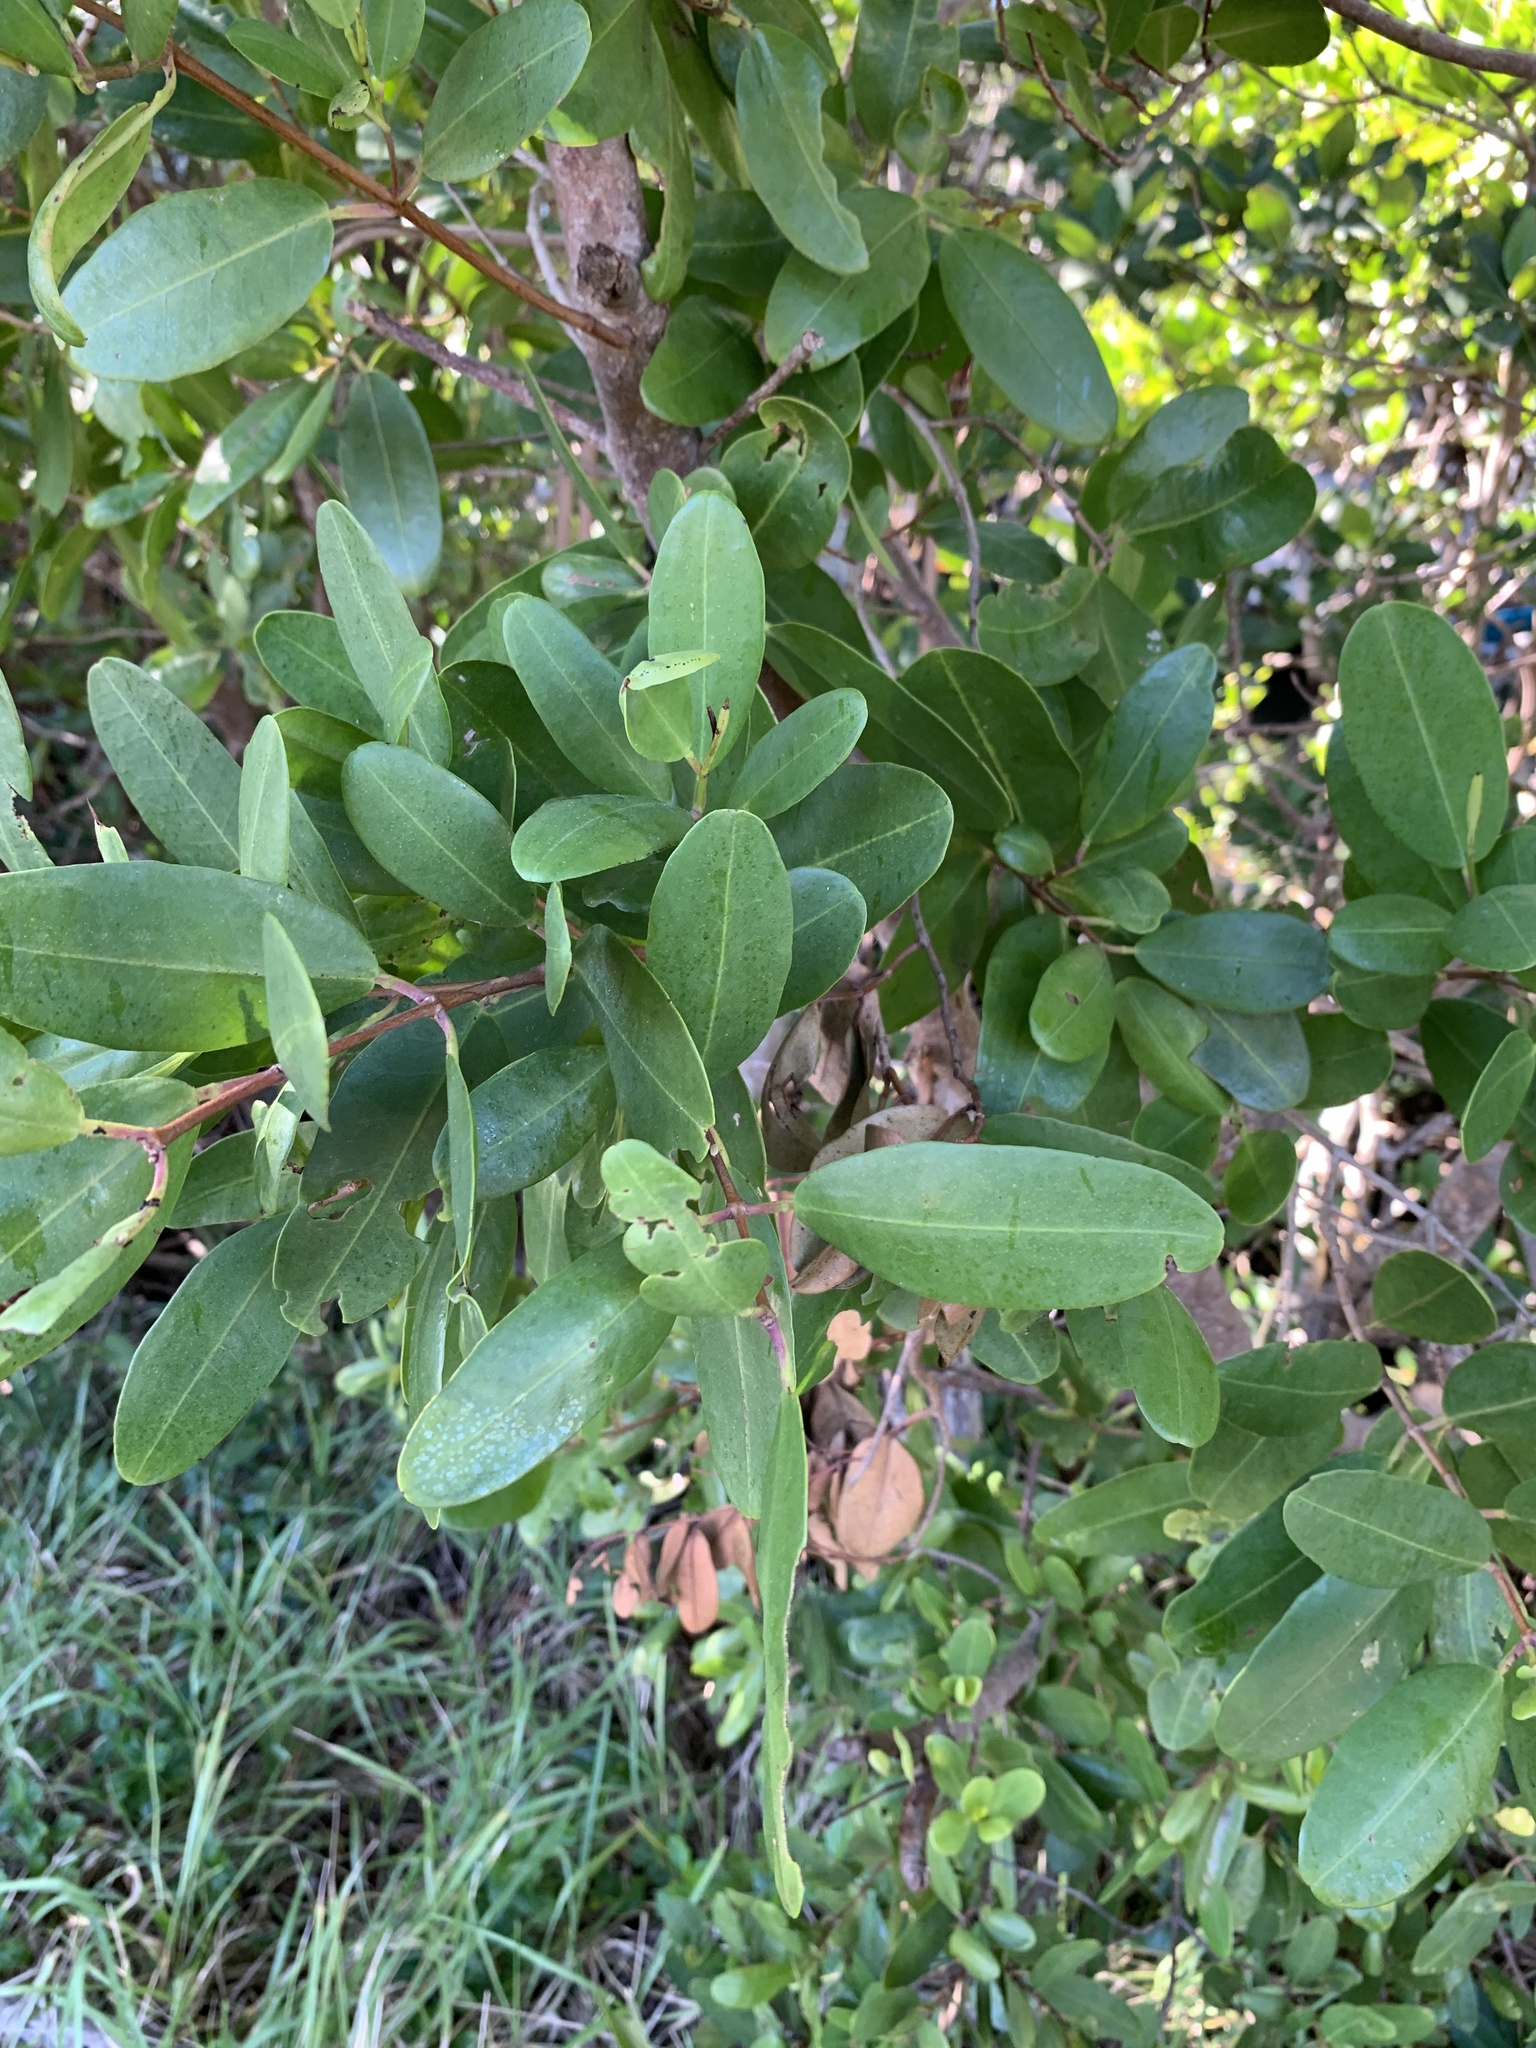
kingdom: Plantae
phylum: Tracheophyta
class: Magnoliopsida
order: Myrtales
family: Combretaceae
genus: Laguncularia
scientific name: Laguncularia racemosa
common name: White mangrove
